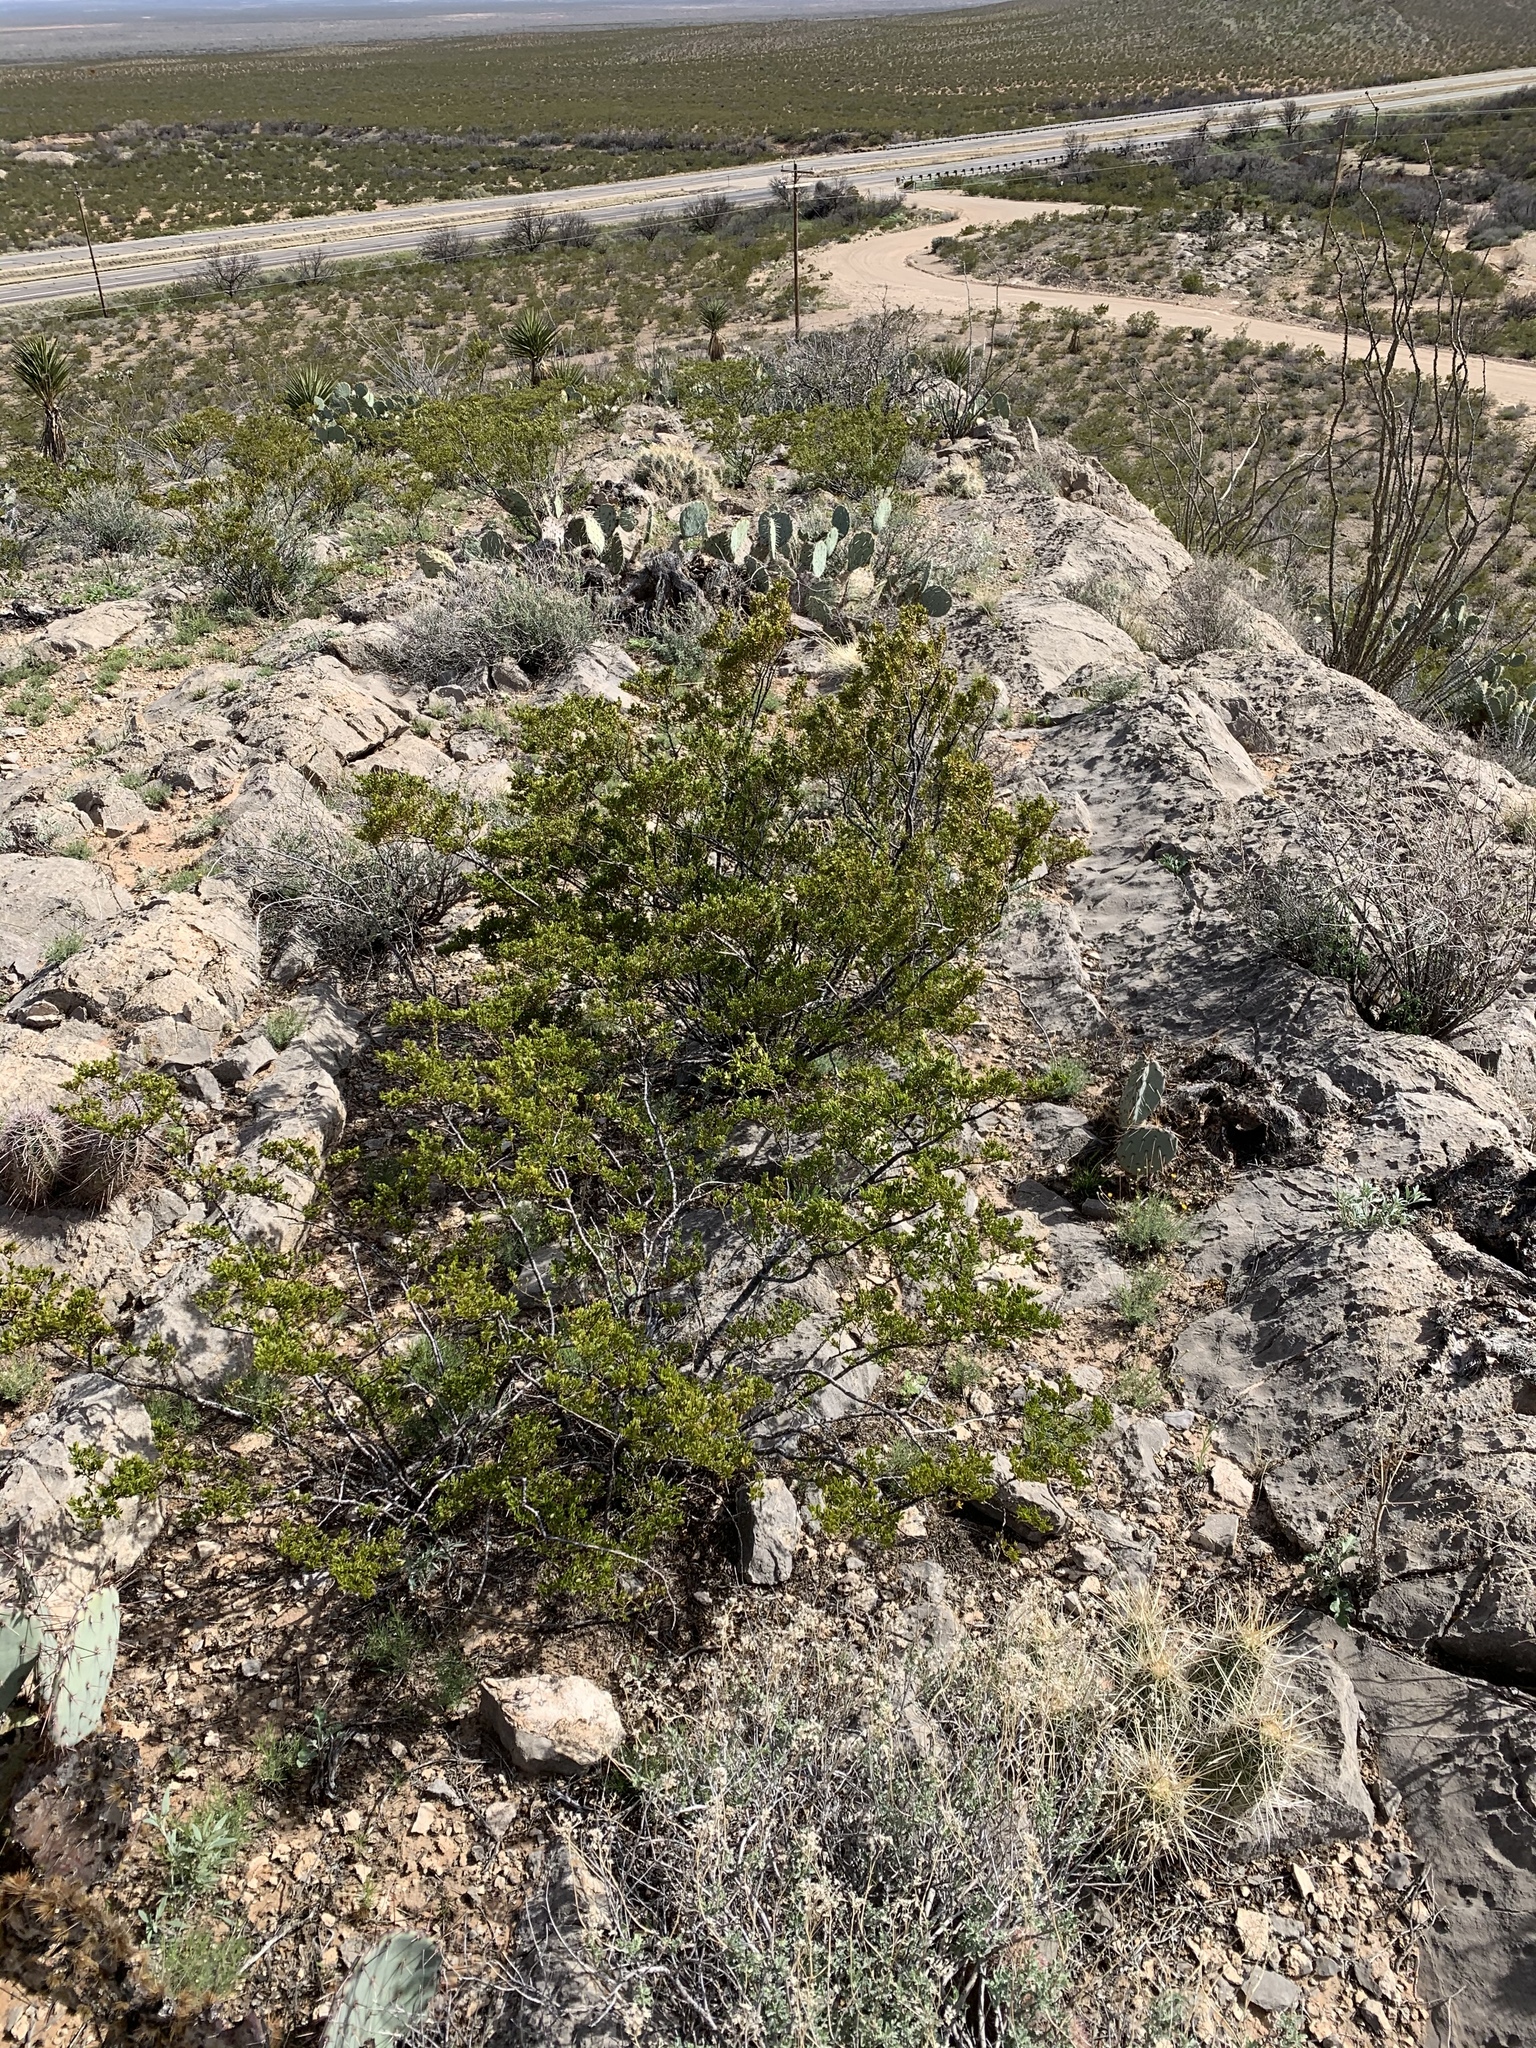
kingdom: Plantae
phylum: Tracheophyta
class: Magnoliopsida
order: Zygophyllales
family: Zygophyllaceae
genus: Larrea
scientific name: Larrea tridentata
